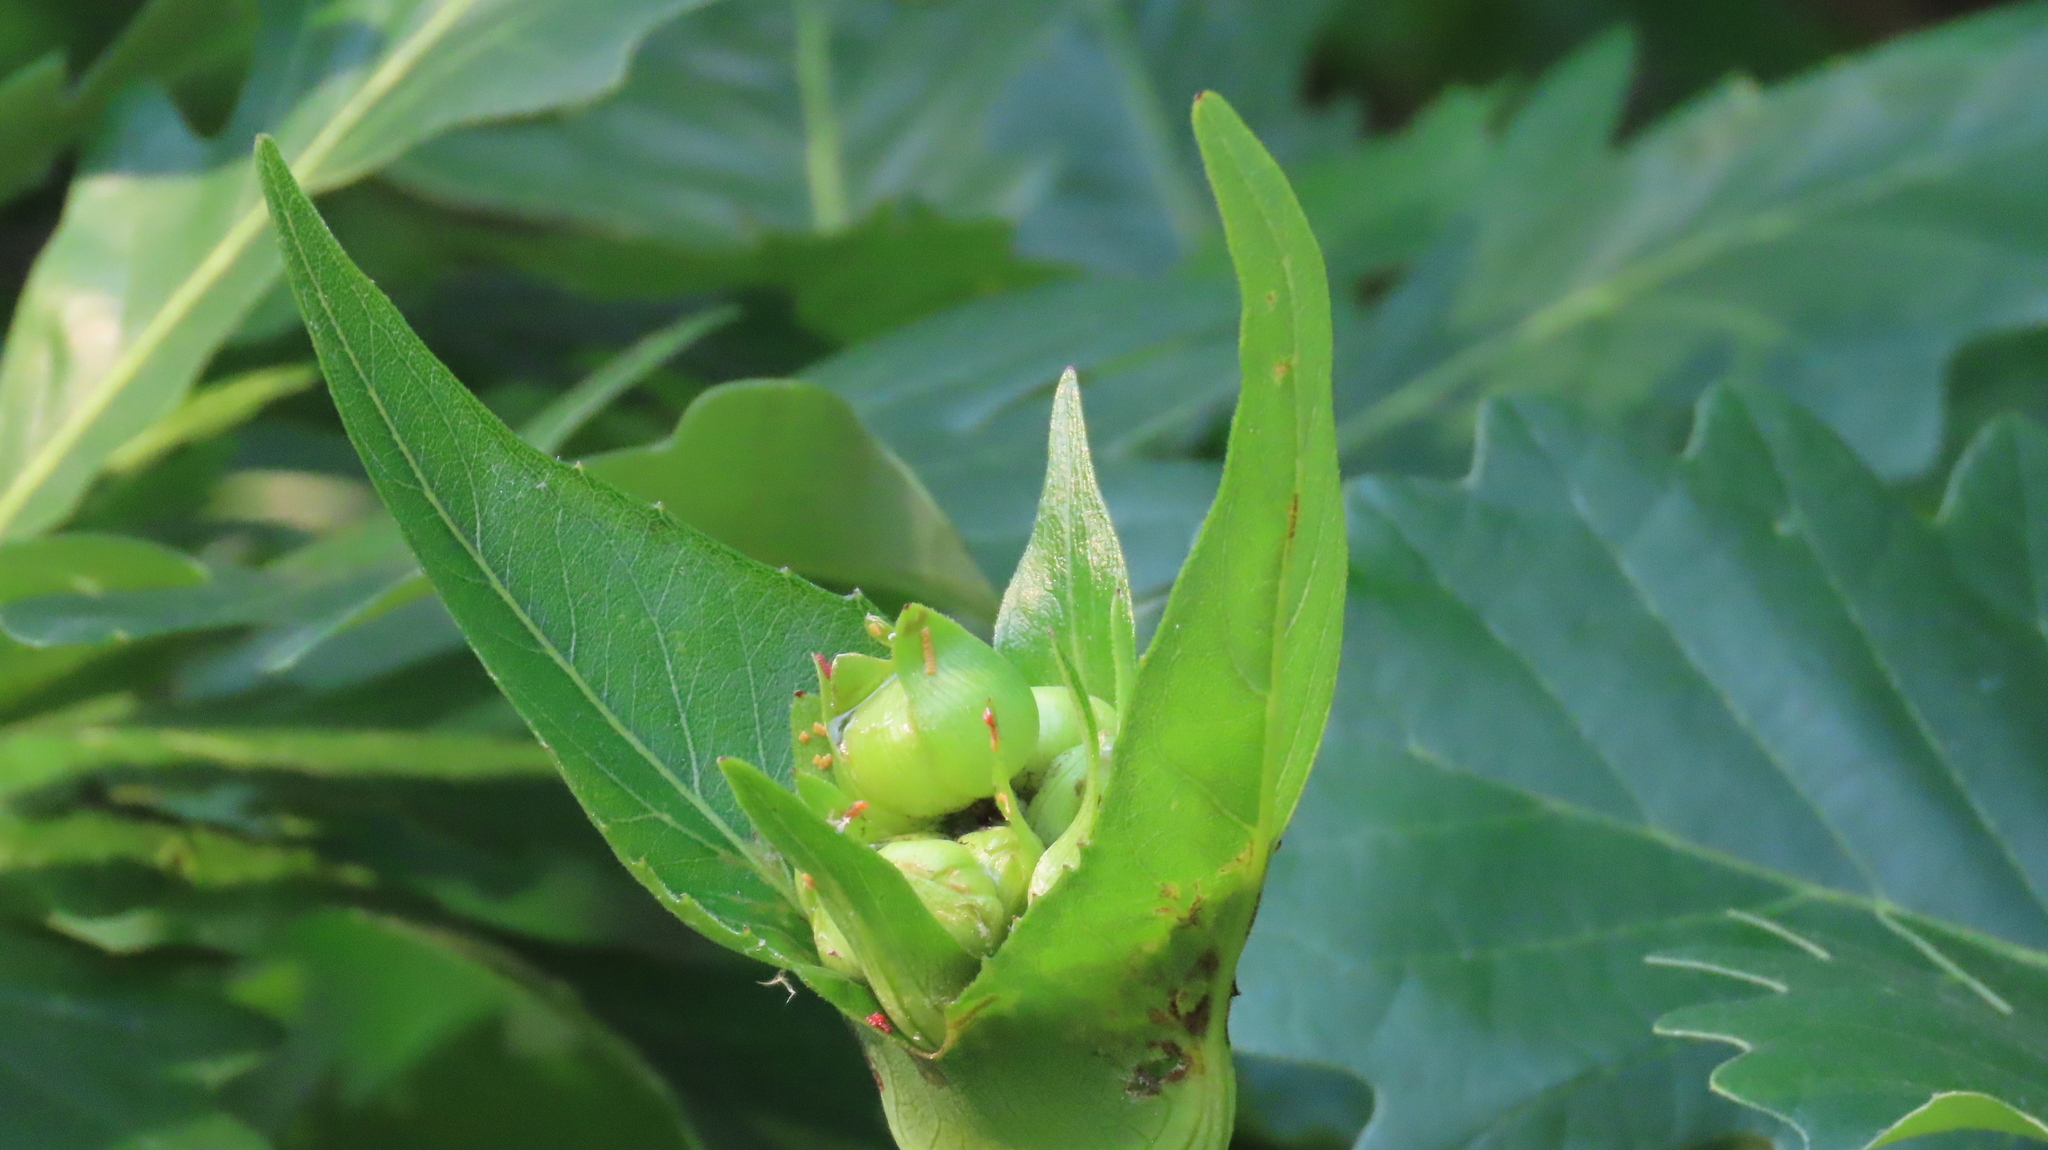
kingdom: Plantae
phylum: Tracheophyta
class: Magnoliopsida
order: Asterales
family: Asteraceae
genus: Silphium
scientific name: Silphium perfoliatum
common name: Cup-plant
